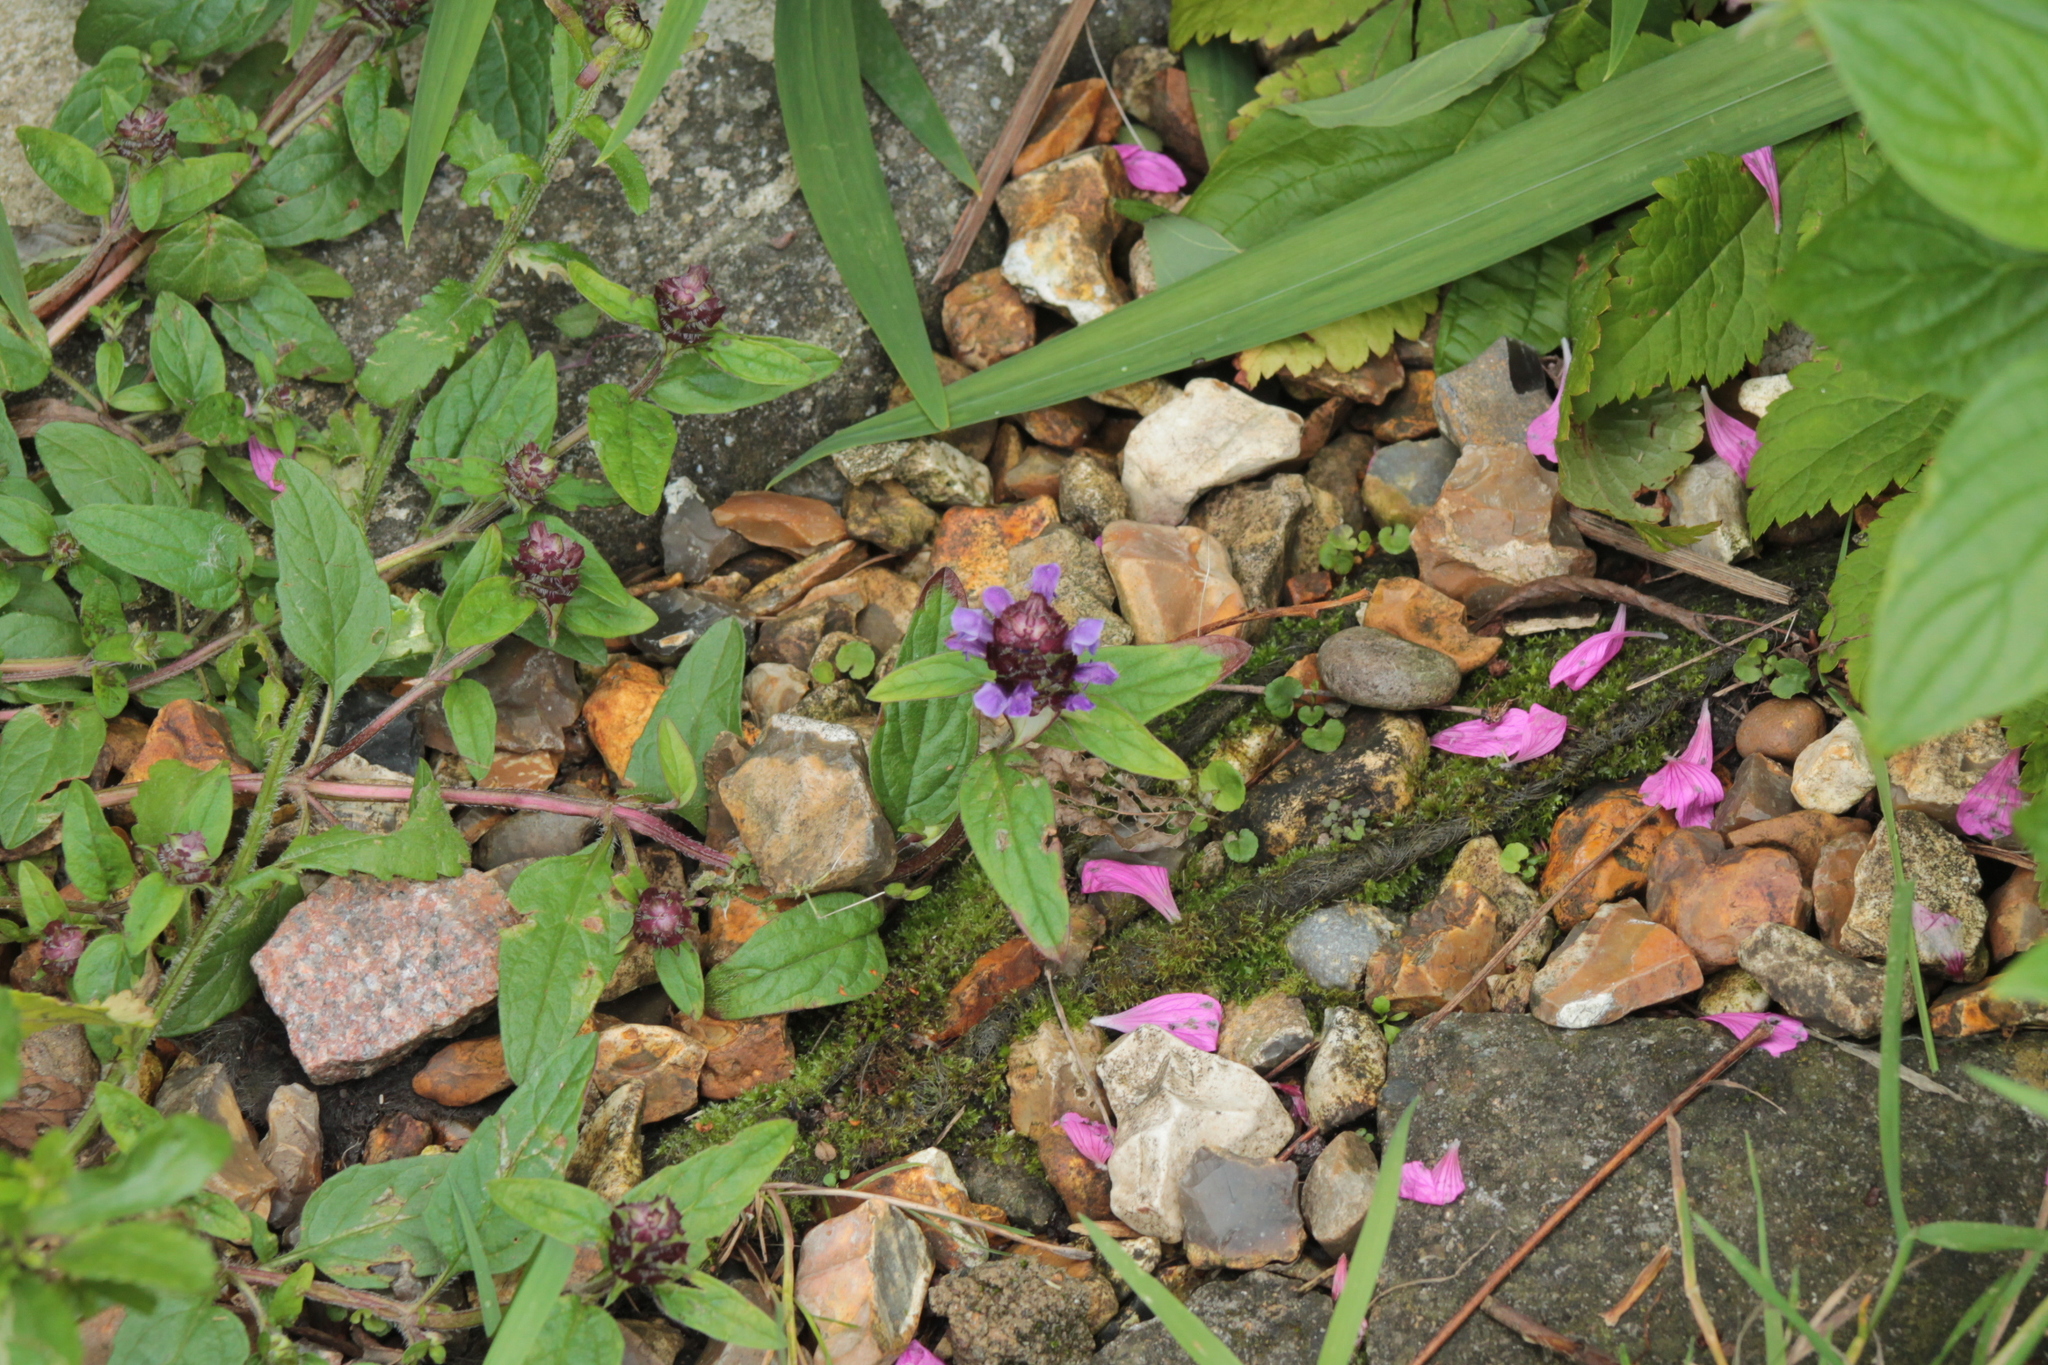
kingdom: Plantae
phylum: Tracheophyta
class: Magnoliopsida
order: Lamiales
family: Lamiaceae
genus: Prunella
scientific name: Prunella vulgaris
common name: Heal-all
